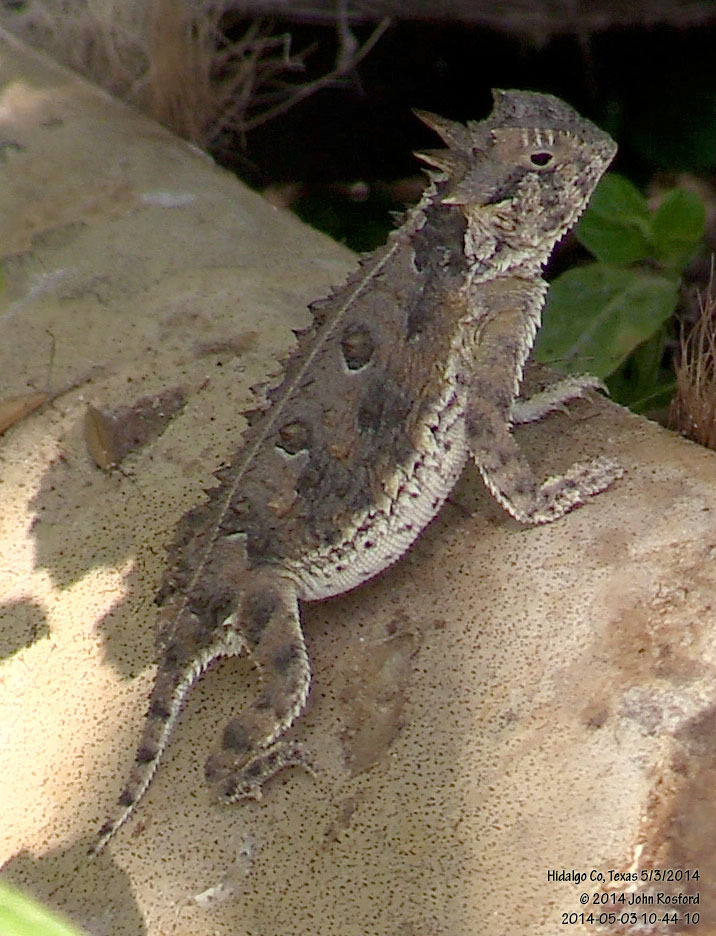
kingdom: Animalia
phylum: Chordata
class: Squamata
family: Phrynosomatidae
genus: Phrynosoma
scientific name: Phrynosoma cornutum
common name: Texas horned lizard
